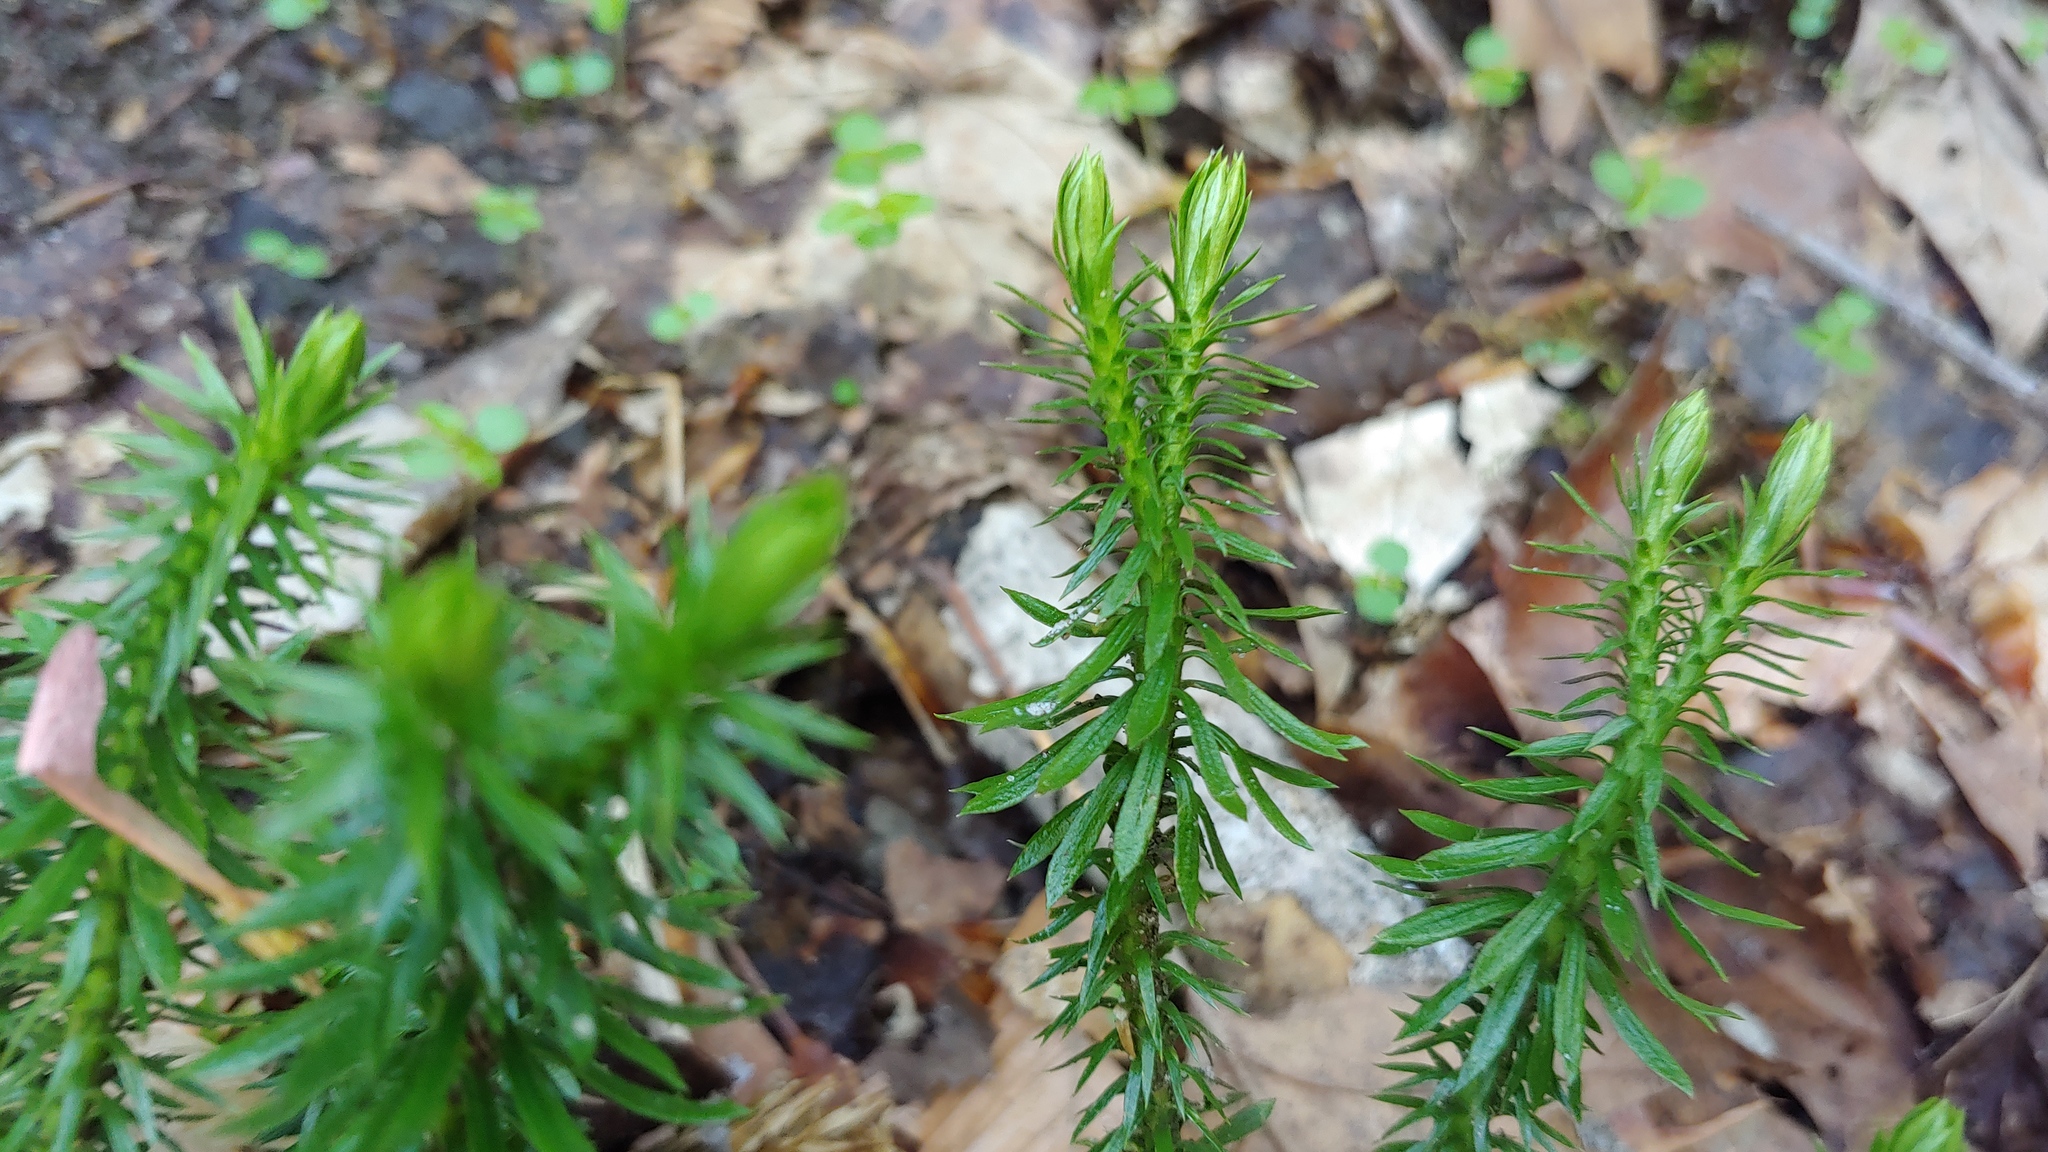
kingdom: Plantae
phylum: Tracheophyta
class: Lycopodiopsida
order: Lycopodiales
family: Lycopodiaceae
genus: Huperzia
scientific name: Huperzia lucidula
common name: Shining clubmoss
